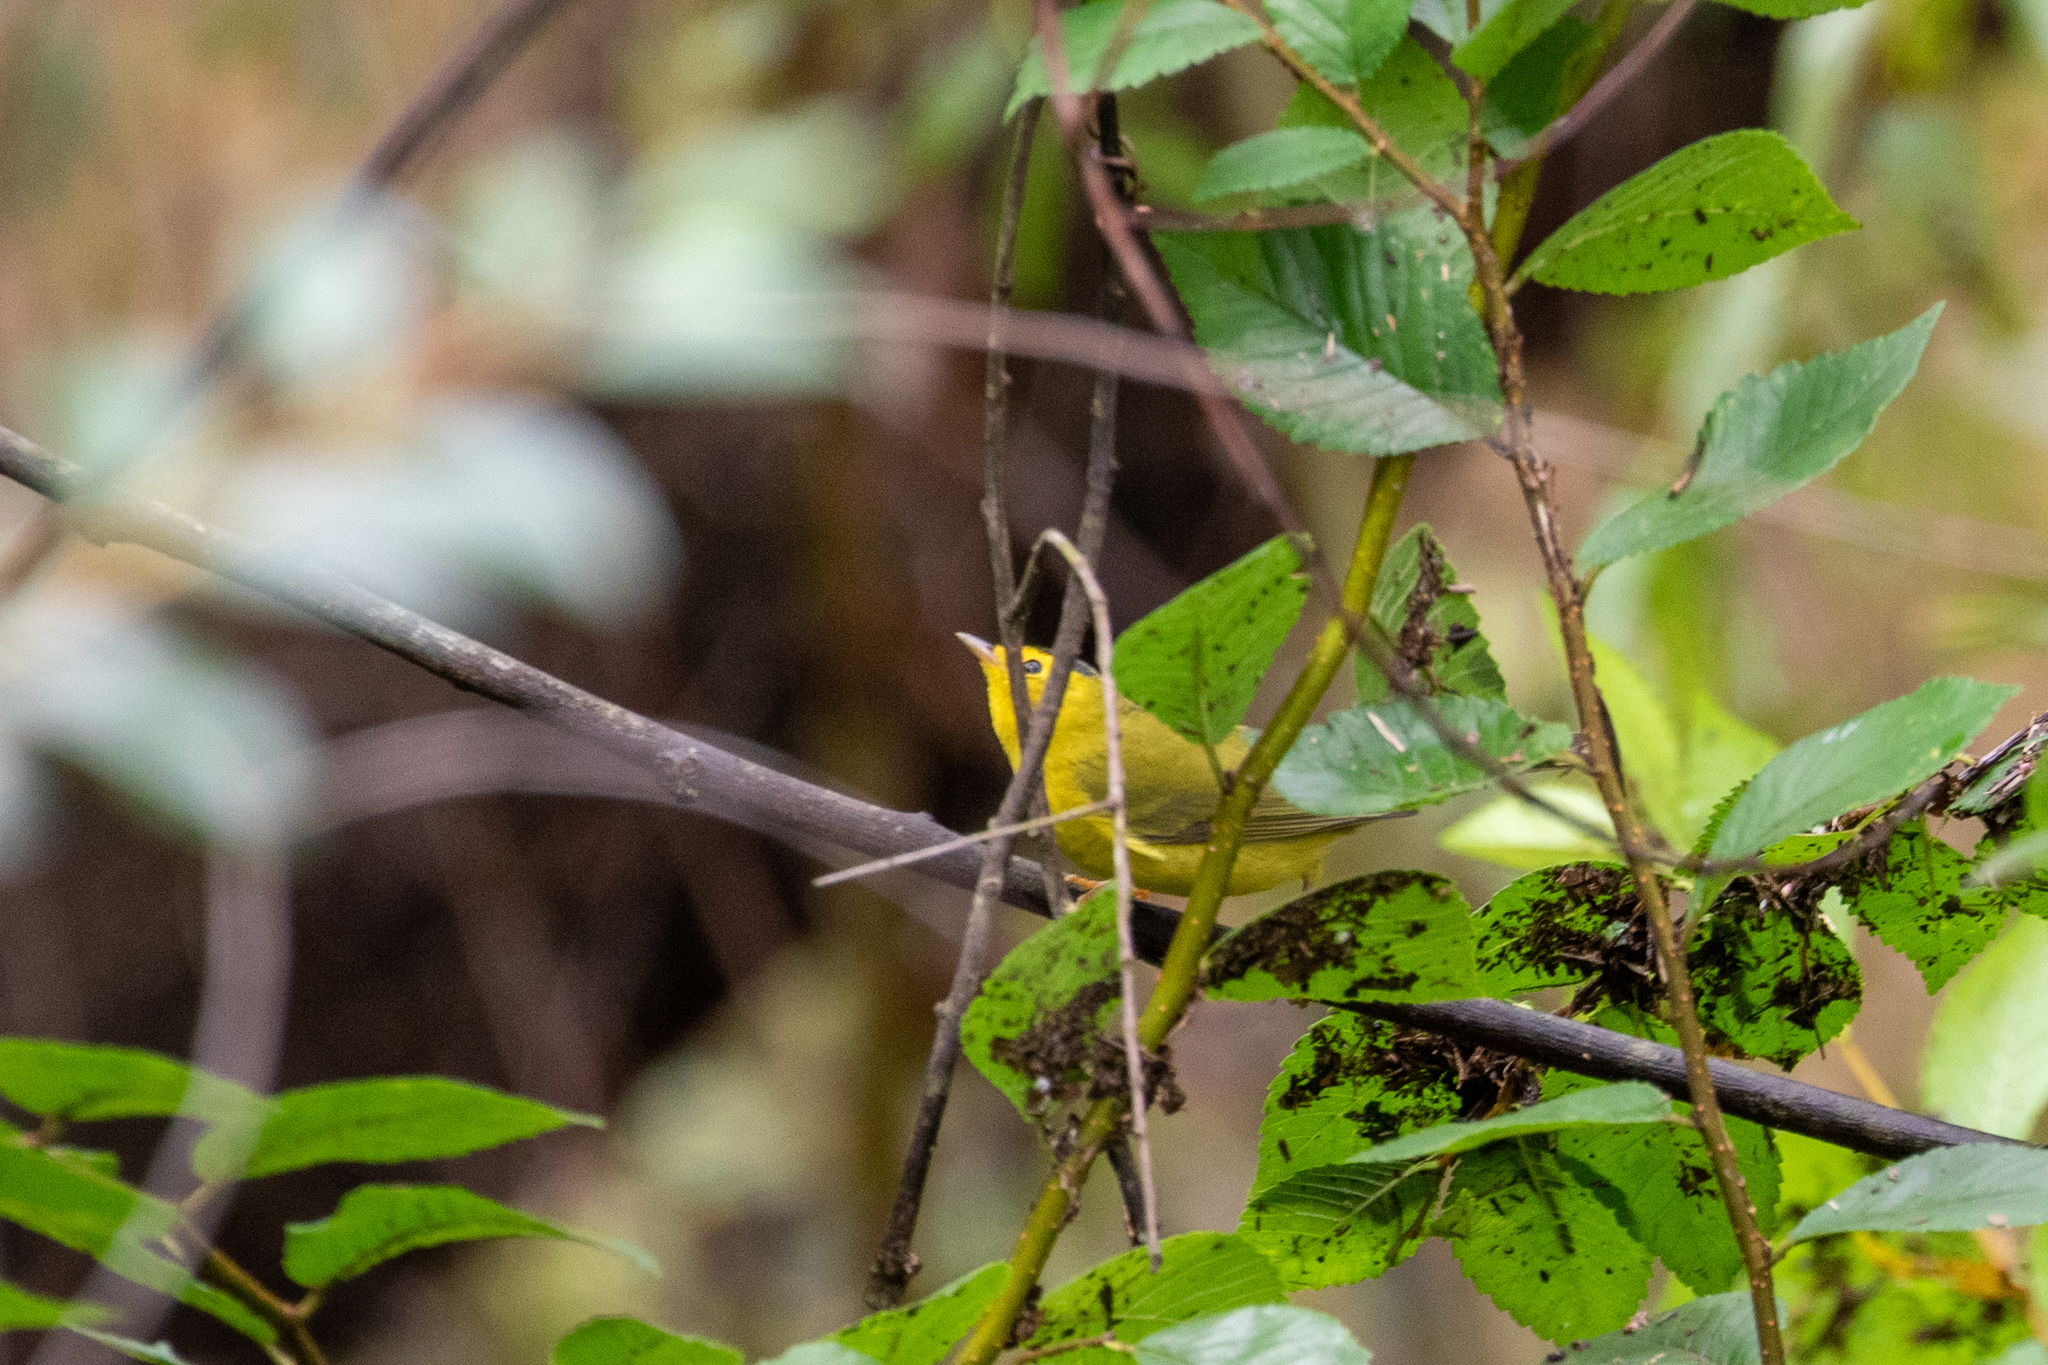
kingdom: Animalia
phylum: Chordata
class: Aves
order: Passeriformes
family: Parulidae
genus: Cardellina
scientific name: Cardellina pusilla
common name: Wilson's warbler
